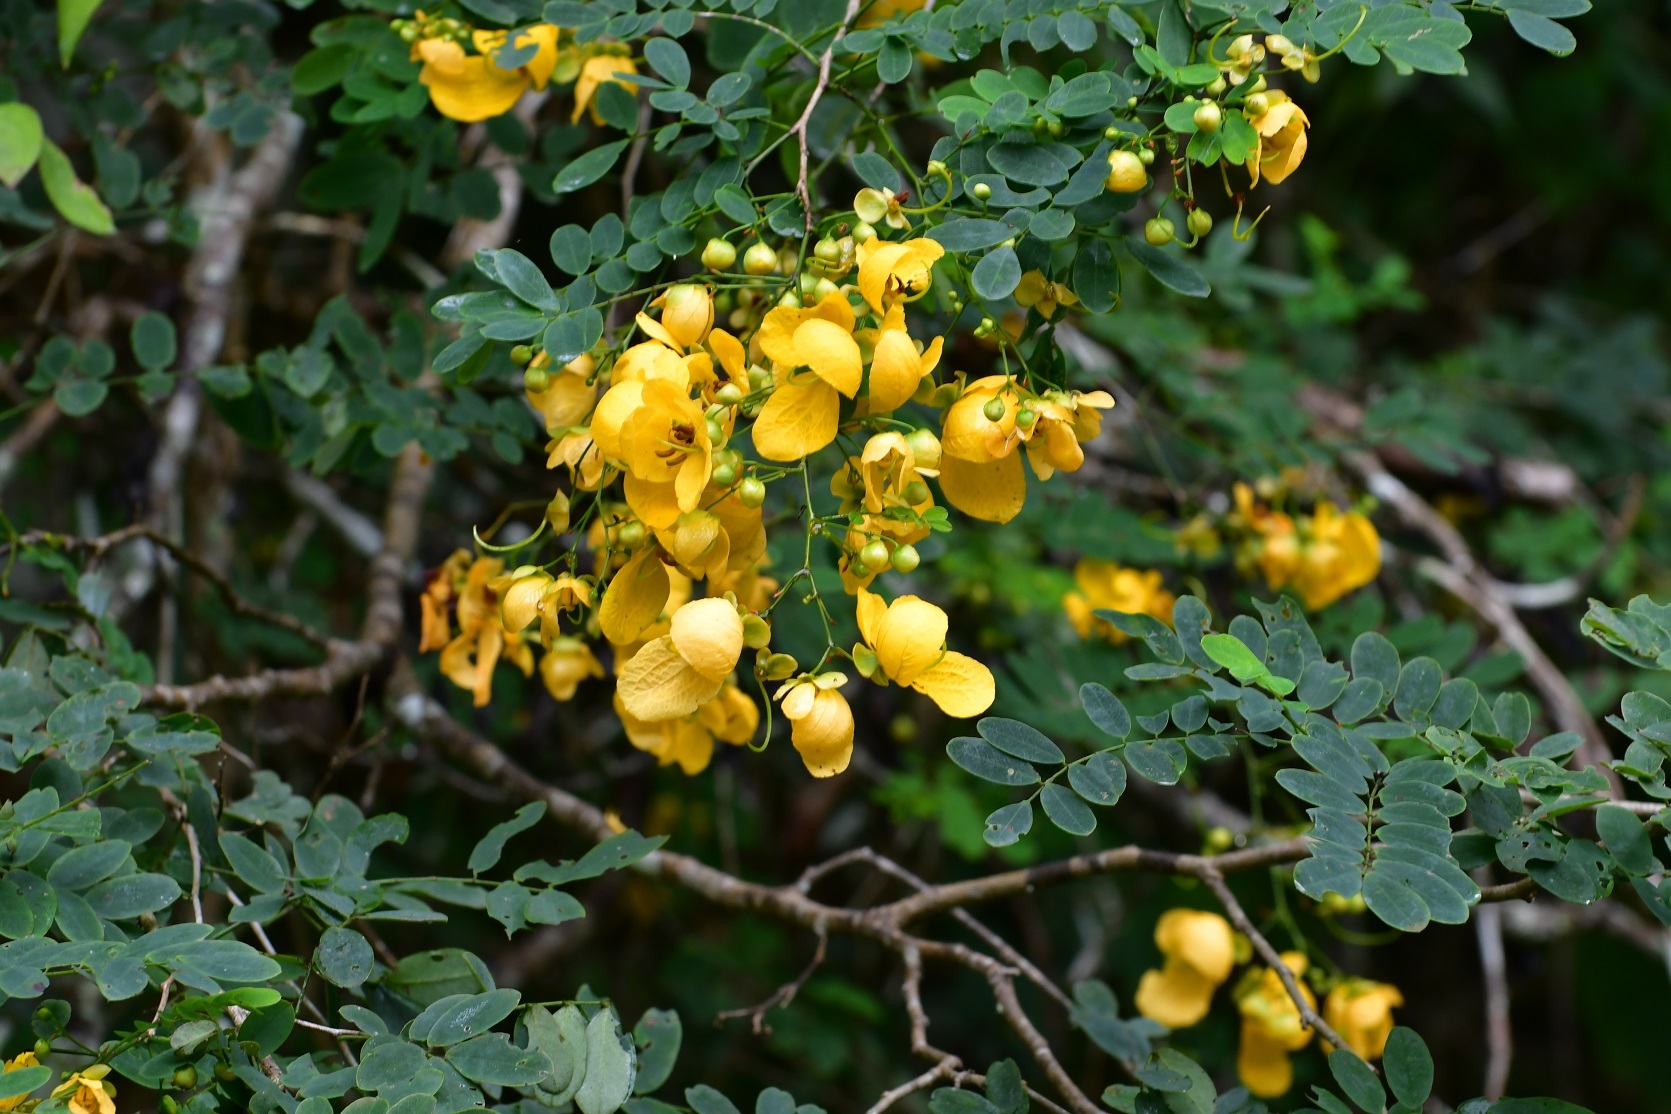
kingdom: Plantae
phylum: Tracheophyta
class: Magnoliopsida
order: Fabales
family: Fabaceae
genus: Senna
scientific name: Senna pallida
